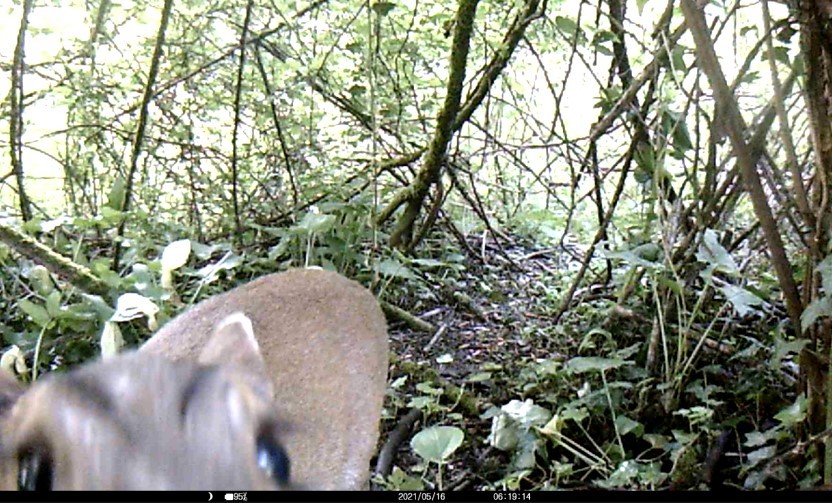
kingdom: Animalia
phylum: Chordata
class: Mammalia
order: Artiodactyla
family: Cervidae
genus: Muntiacus
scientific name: Muntiacus reevesi
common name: Reeves' muntjac
